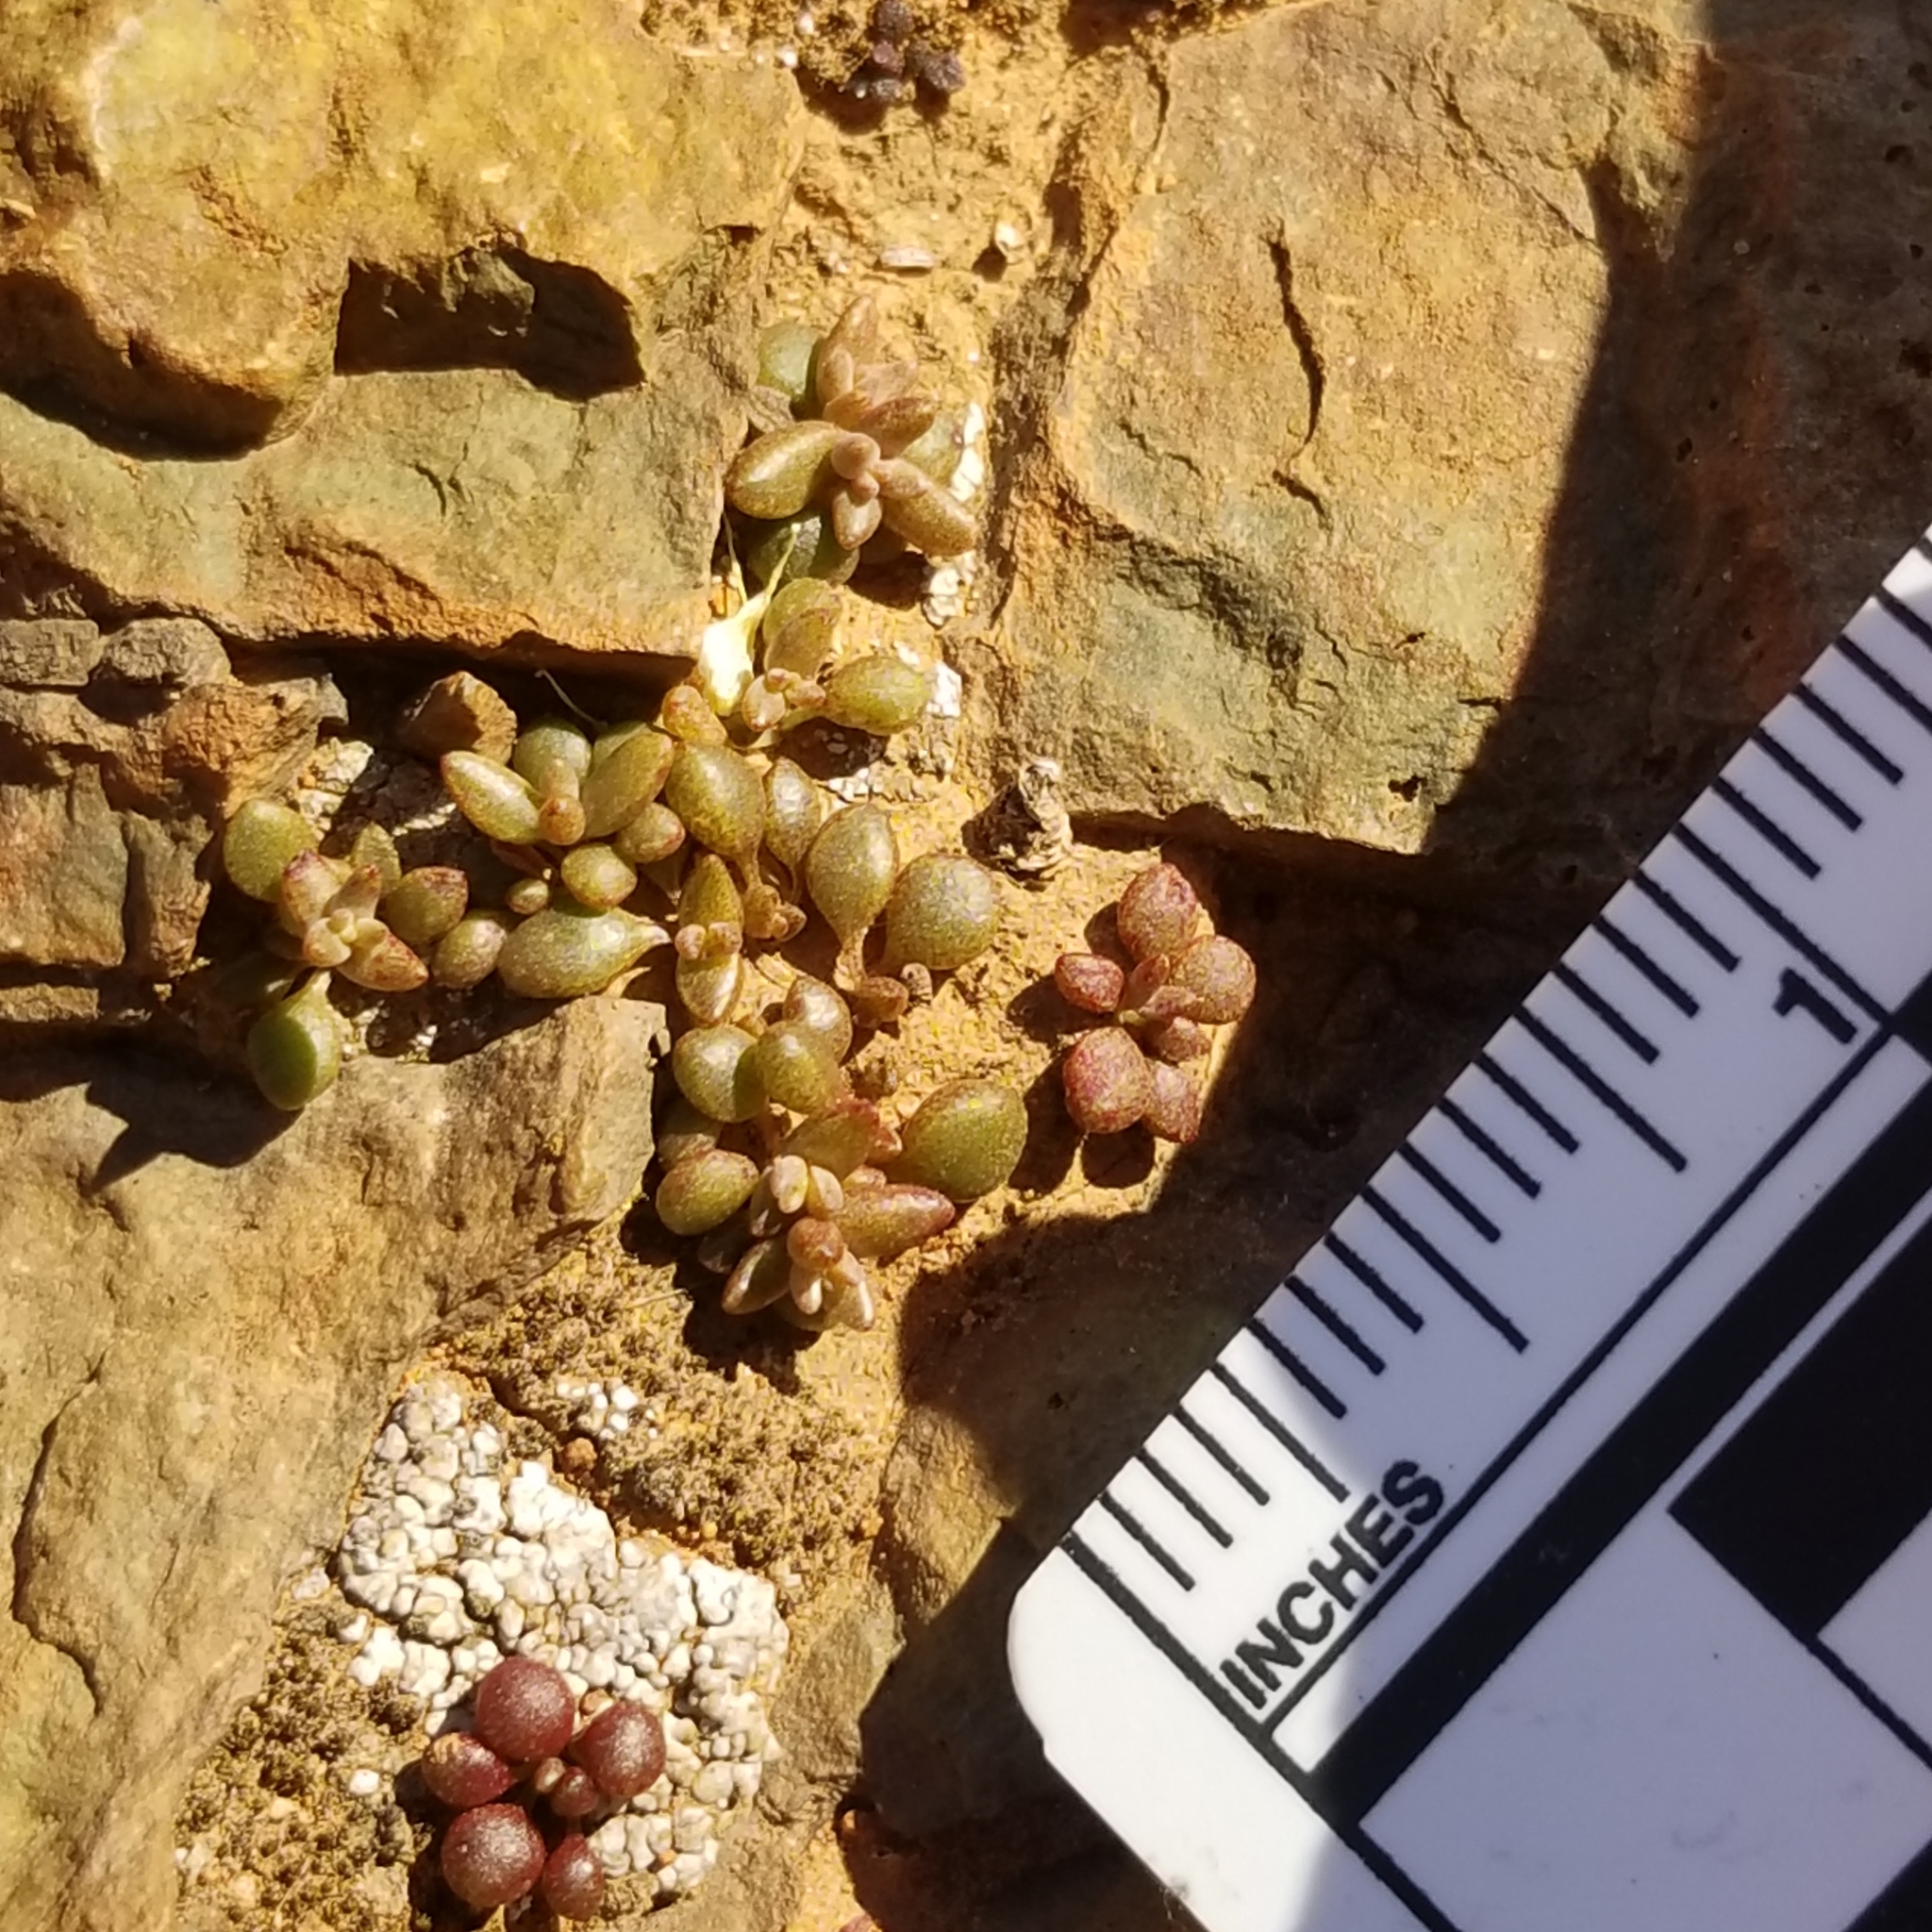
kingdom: Plantae
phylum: Tracheophyta
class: Magnoliopsida
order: Saxifragales
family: Crassulaceae
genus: Dudleya
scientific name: Dudleya variegata
